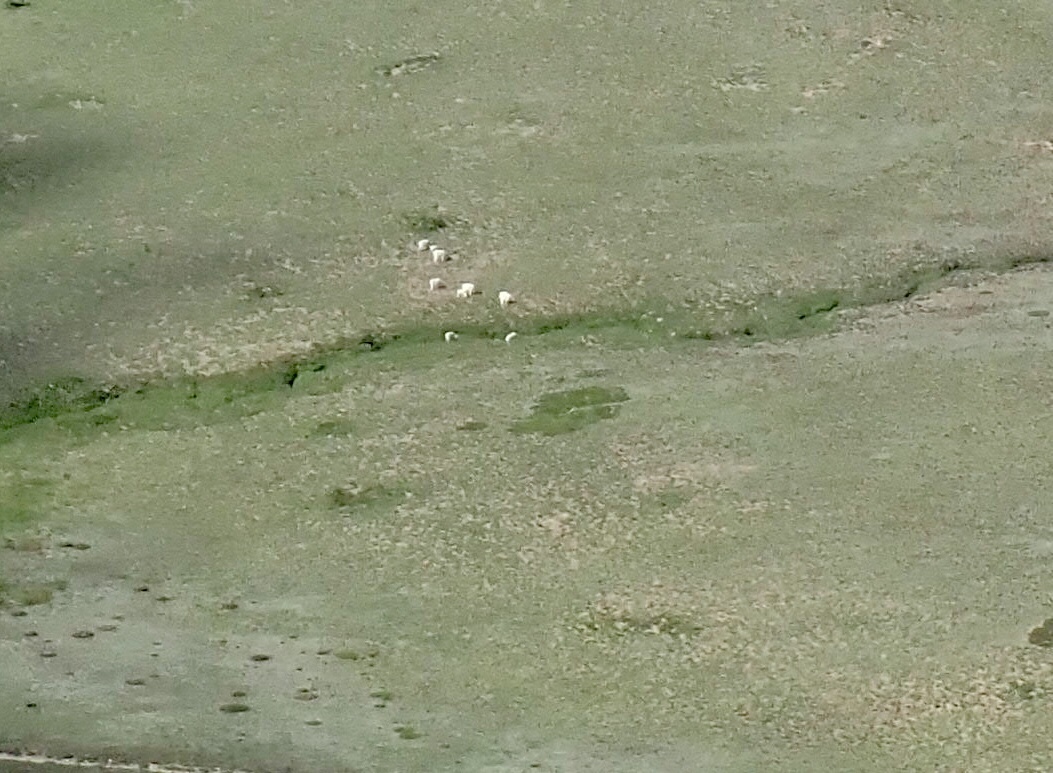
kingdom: Animalia
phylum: Chordata
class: Mammalia
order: Artiodactyla
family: Bovidae
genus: Oreamnos
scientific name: Oreamnos americanus
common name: Mountain goat
